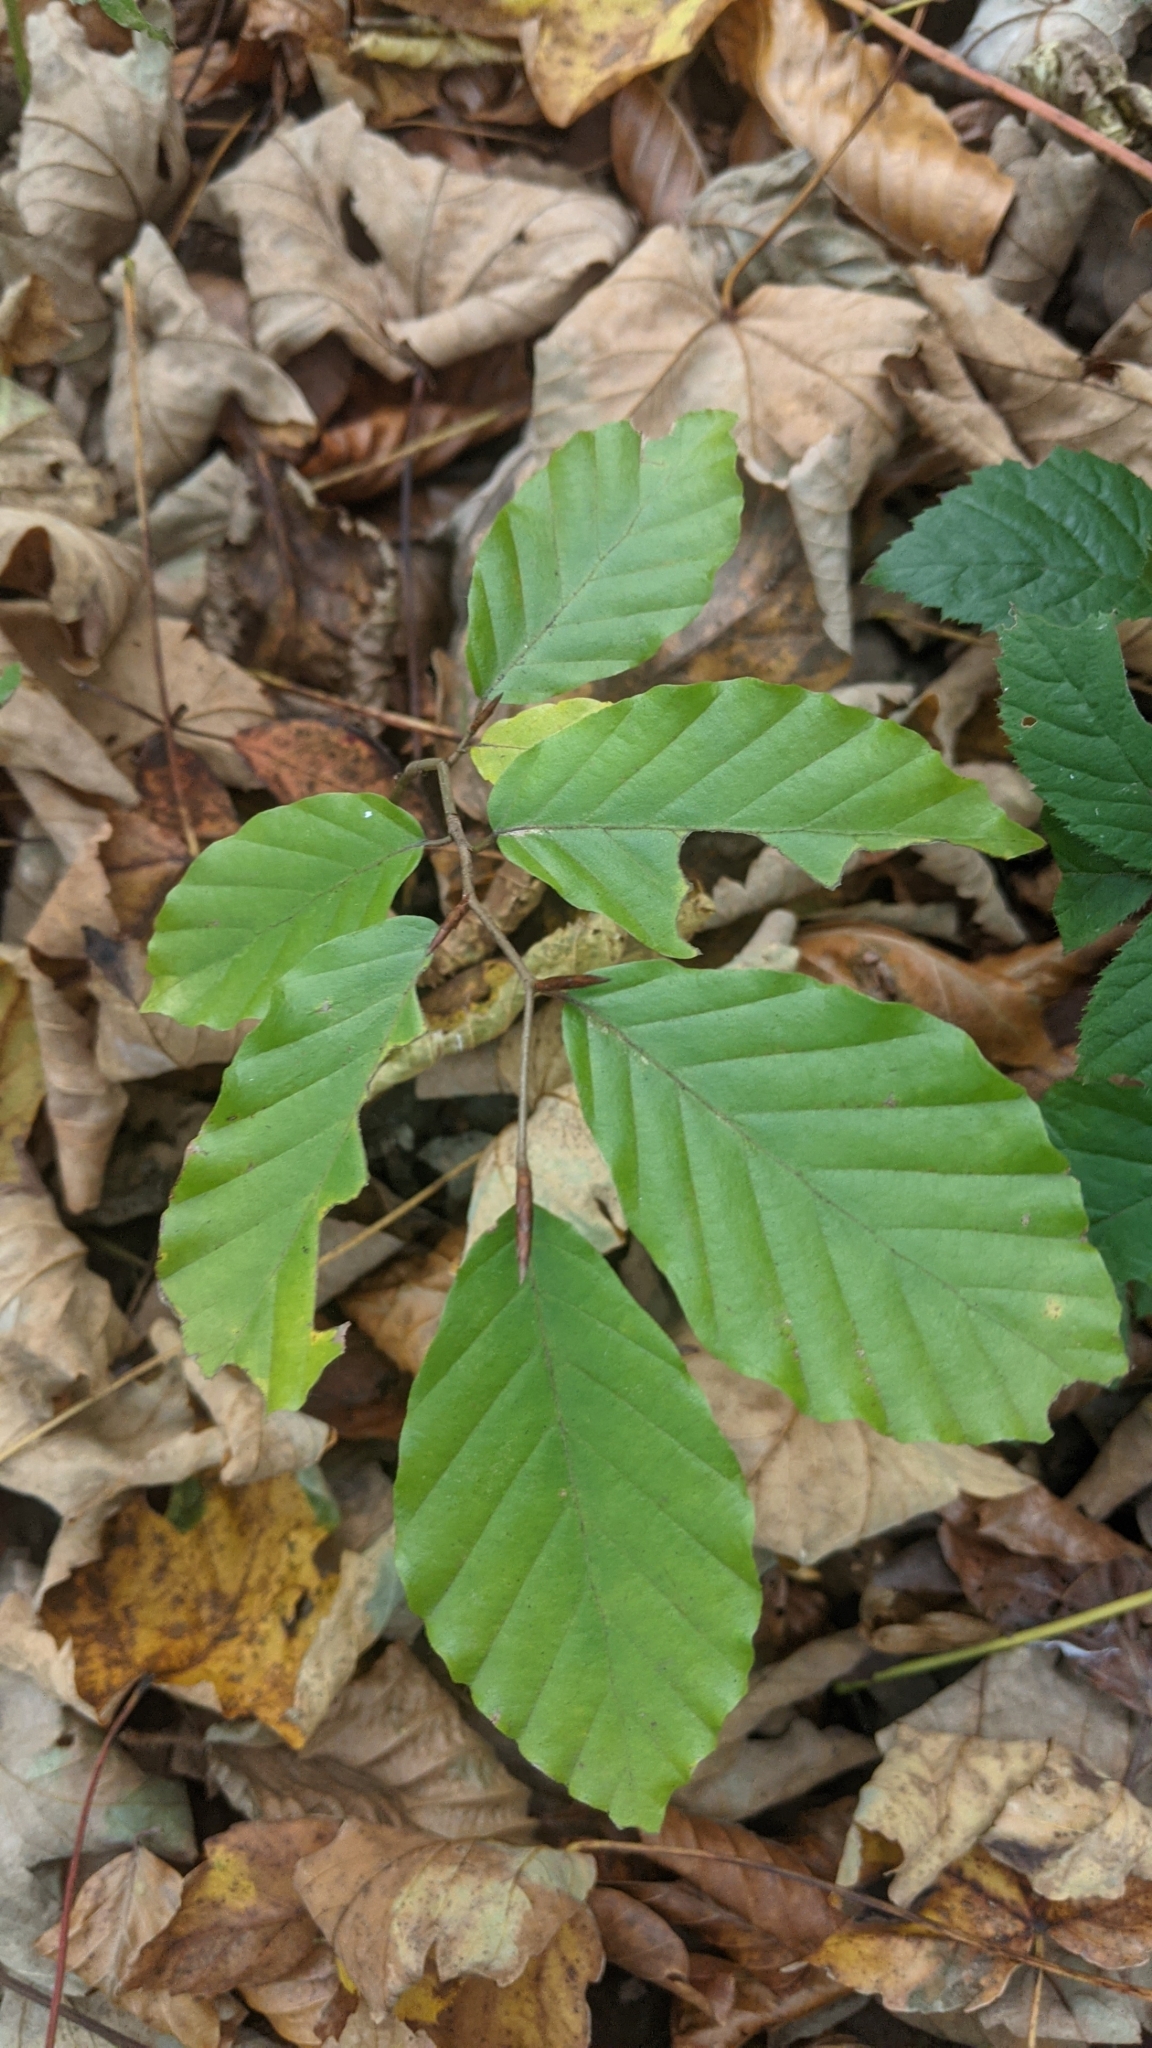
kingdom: Plantae
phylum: Tracheophyta
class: Magnoliopsida
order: Fagales
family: Fagaceae
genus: Fagus
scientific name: Fagus sylvatica
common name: Beech
